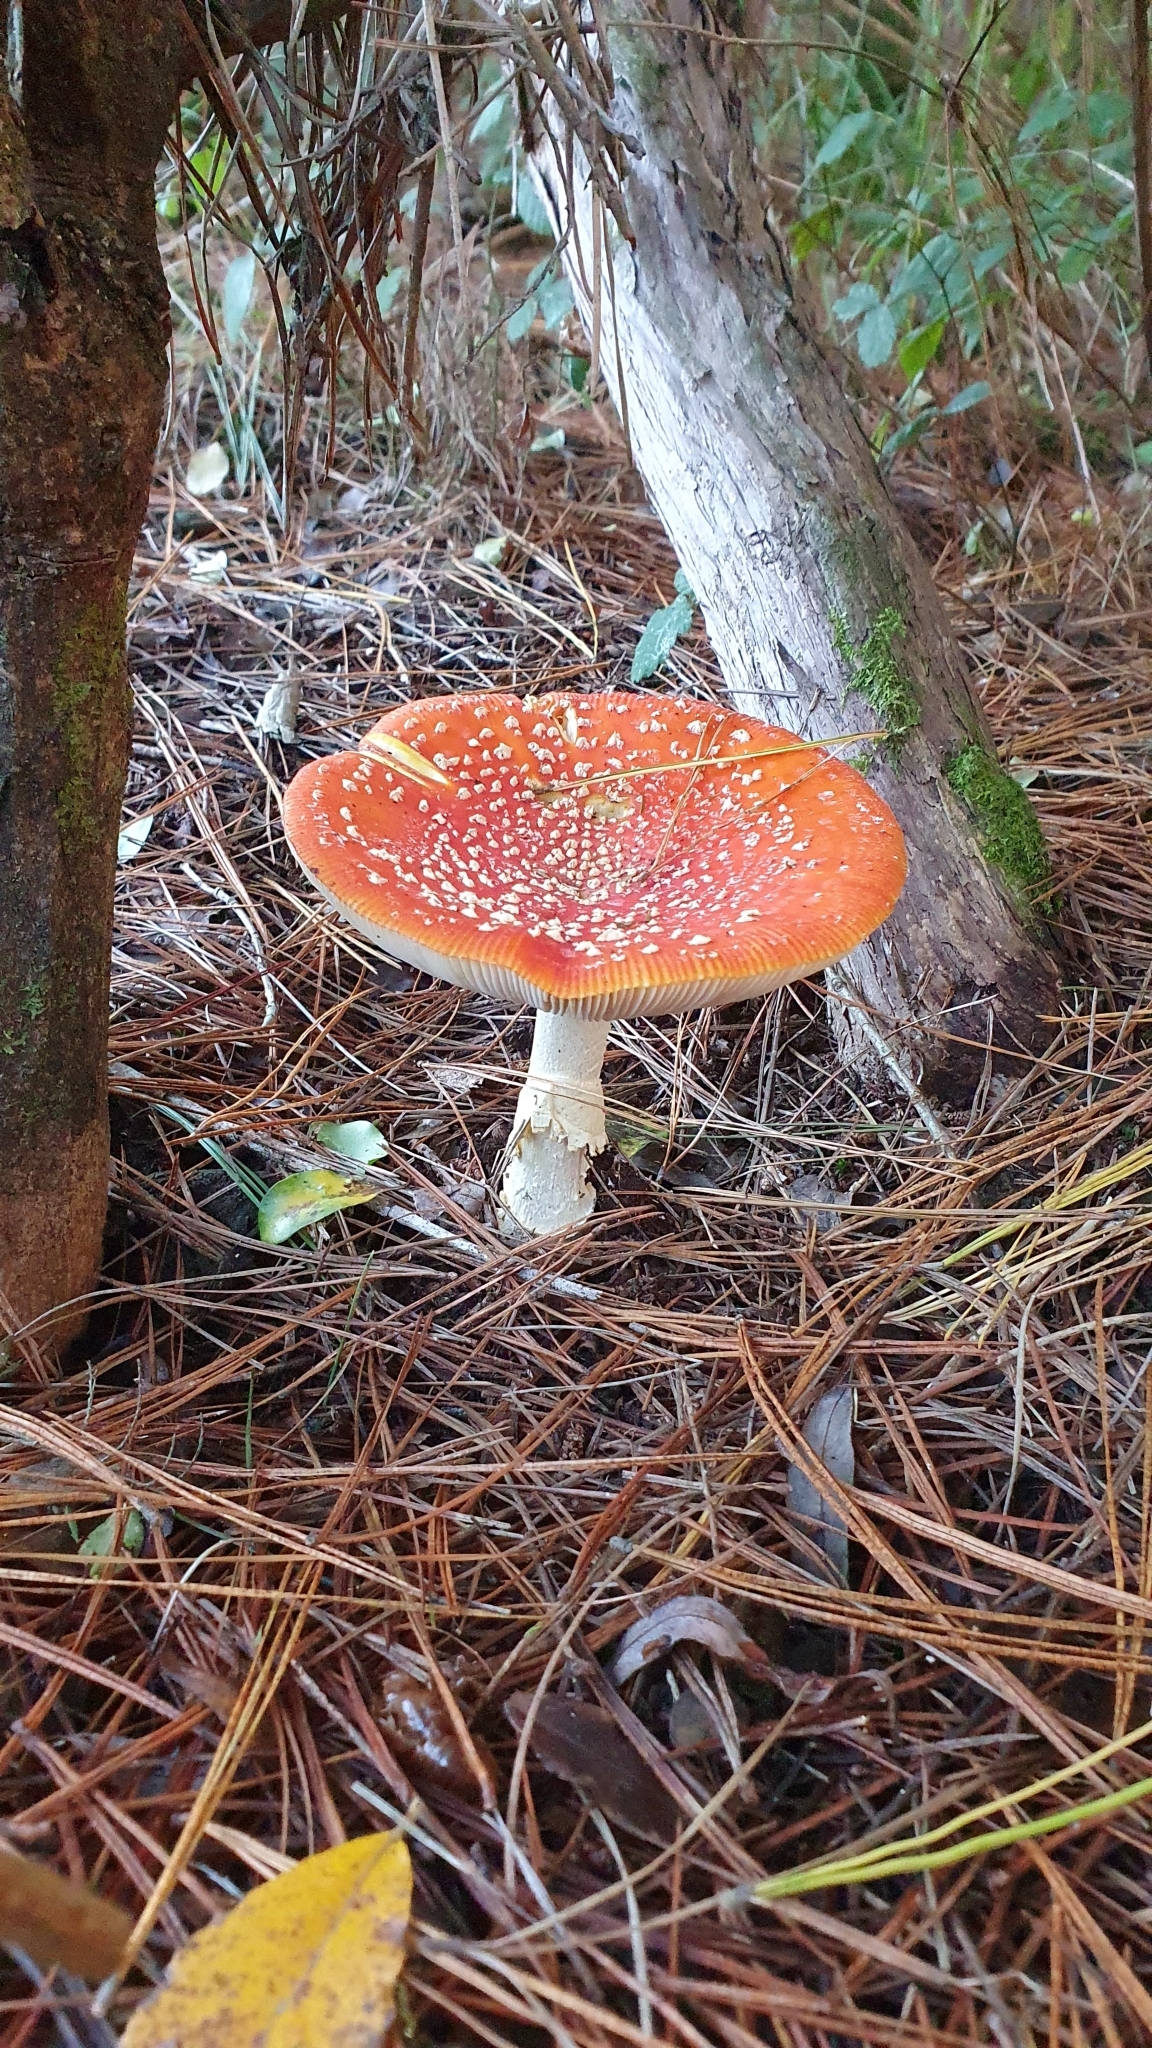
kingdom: Fungi
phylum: Basidiomycota
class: Agaricomycetes
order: Agaricales
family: Amanitaceae
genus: Amanita
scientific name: Amanita muscaria
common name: Fly agaric
